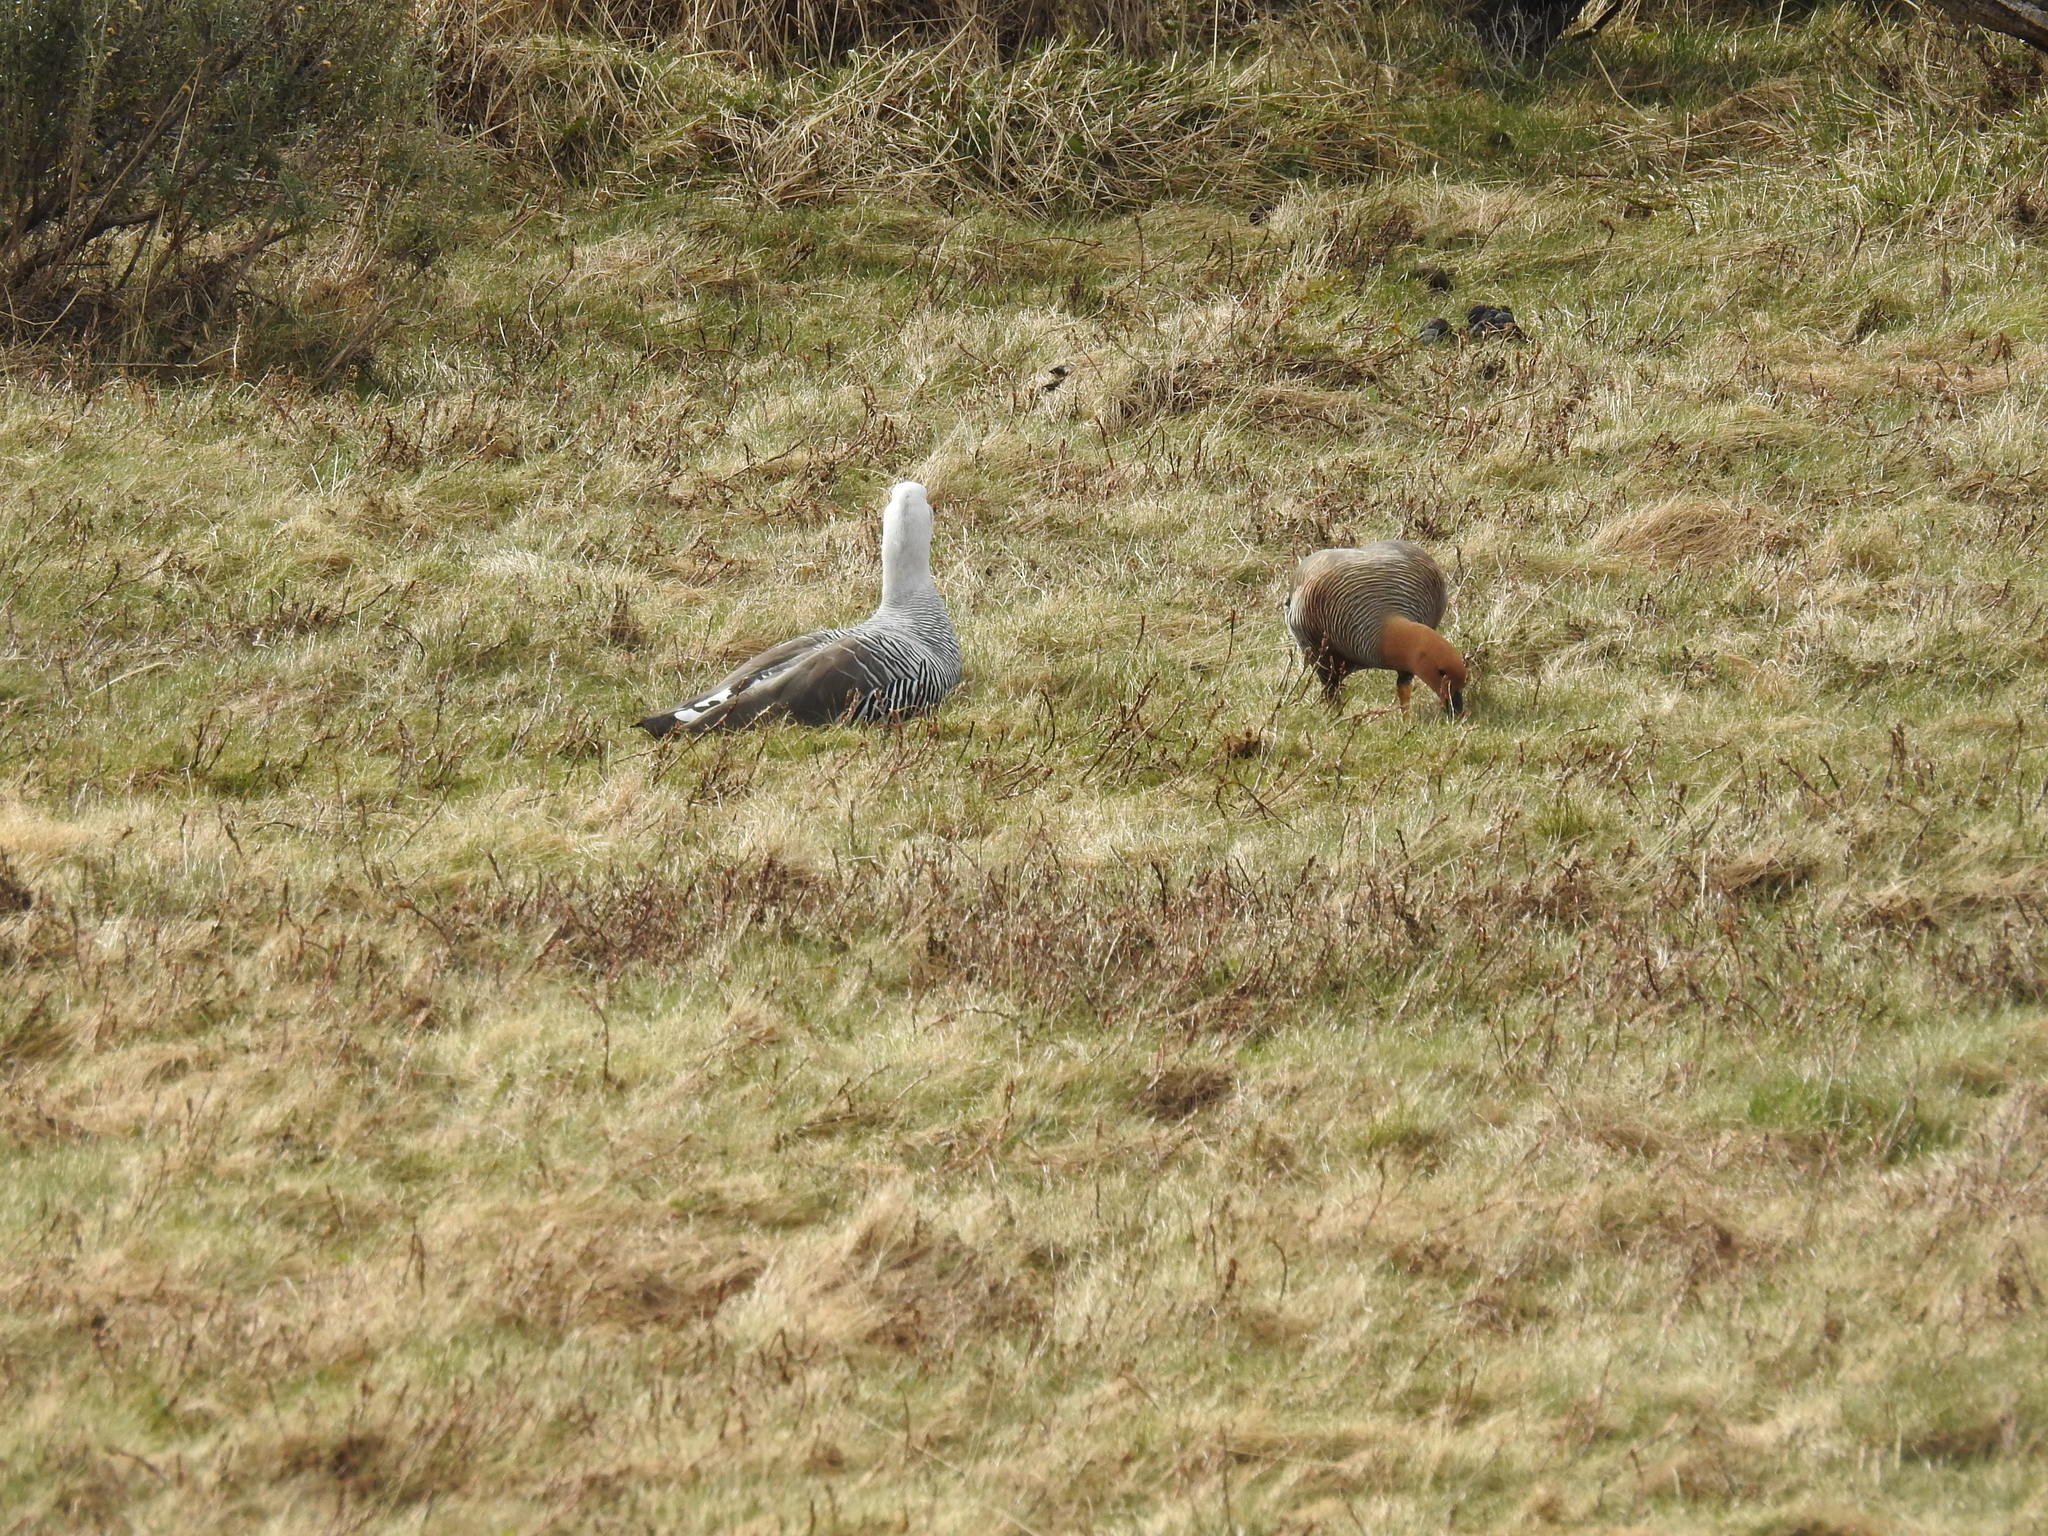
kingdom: Animalia
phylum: Chordata
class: Aves
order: Anseriformes
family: Anatidae
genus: Chloephaga
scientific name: Chloephaga picta
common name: Upland goose
